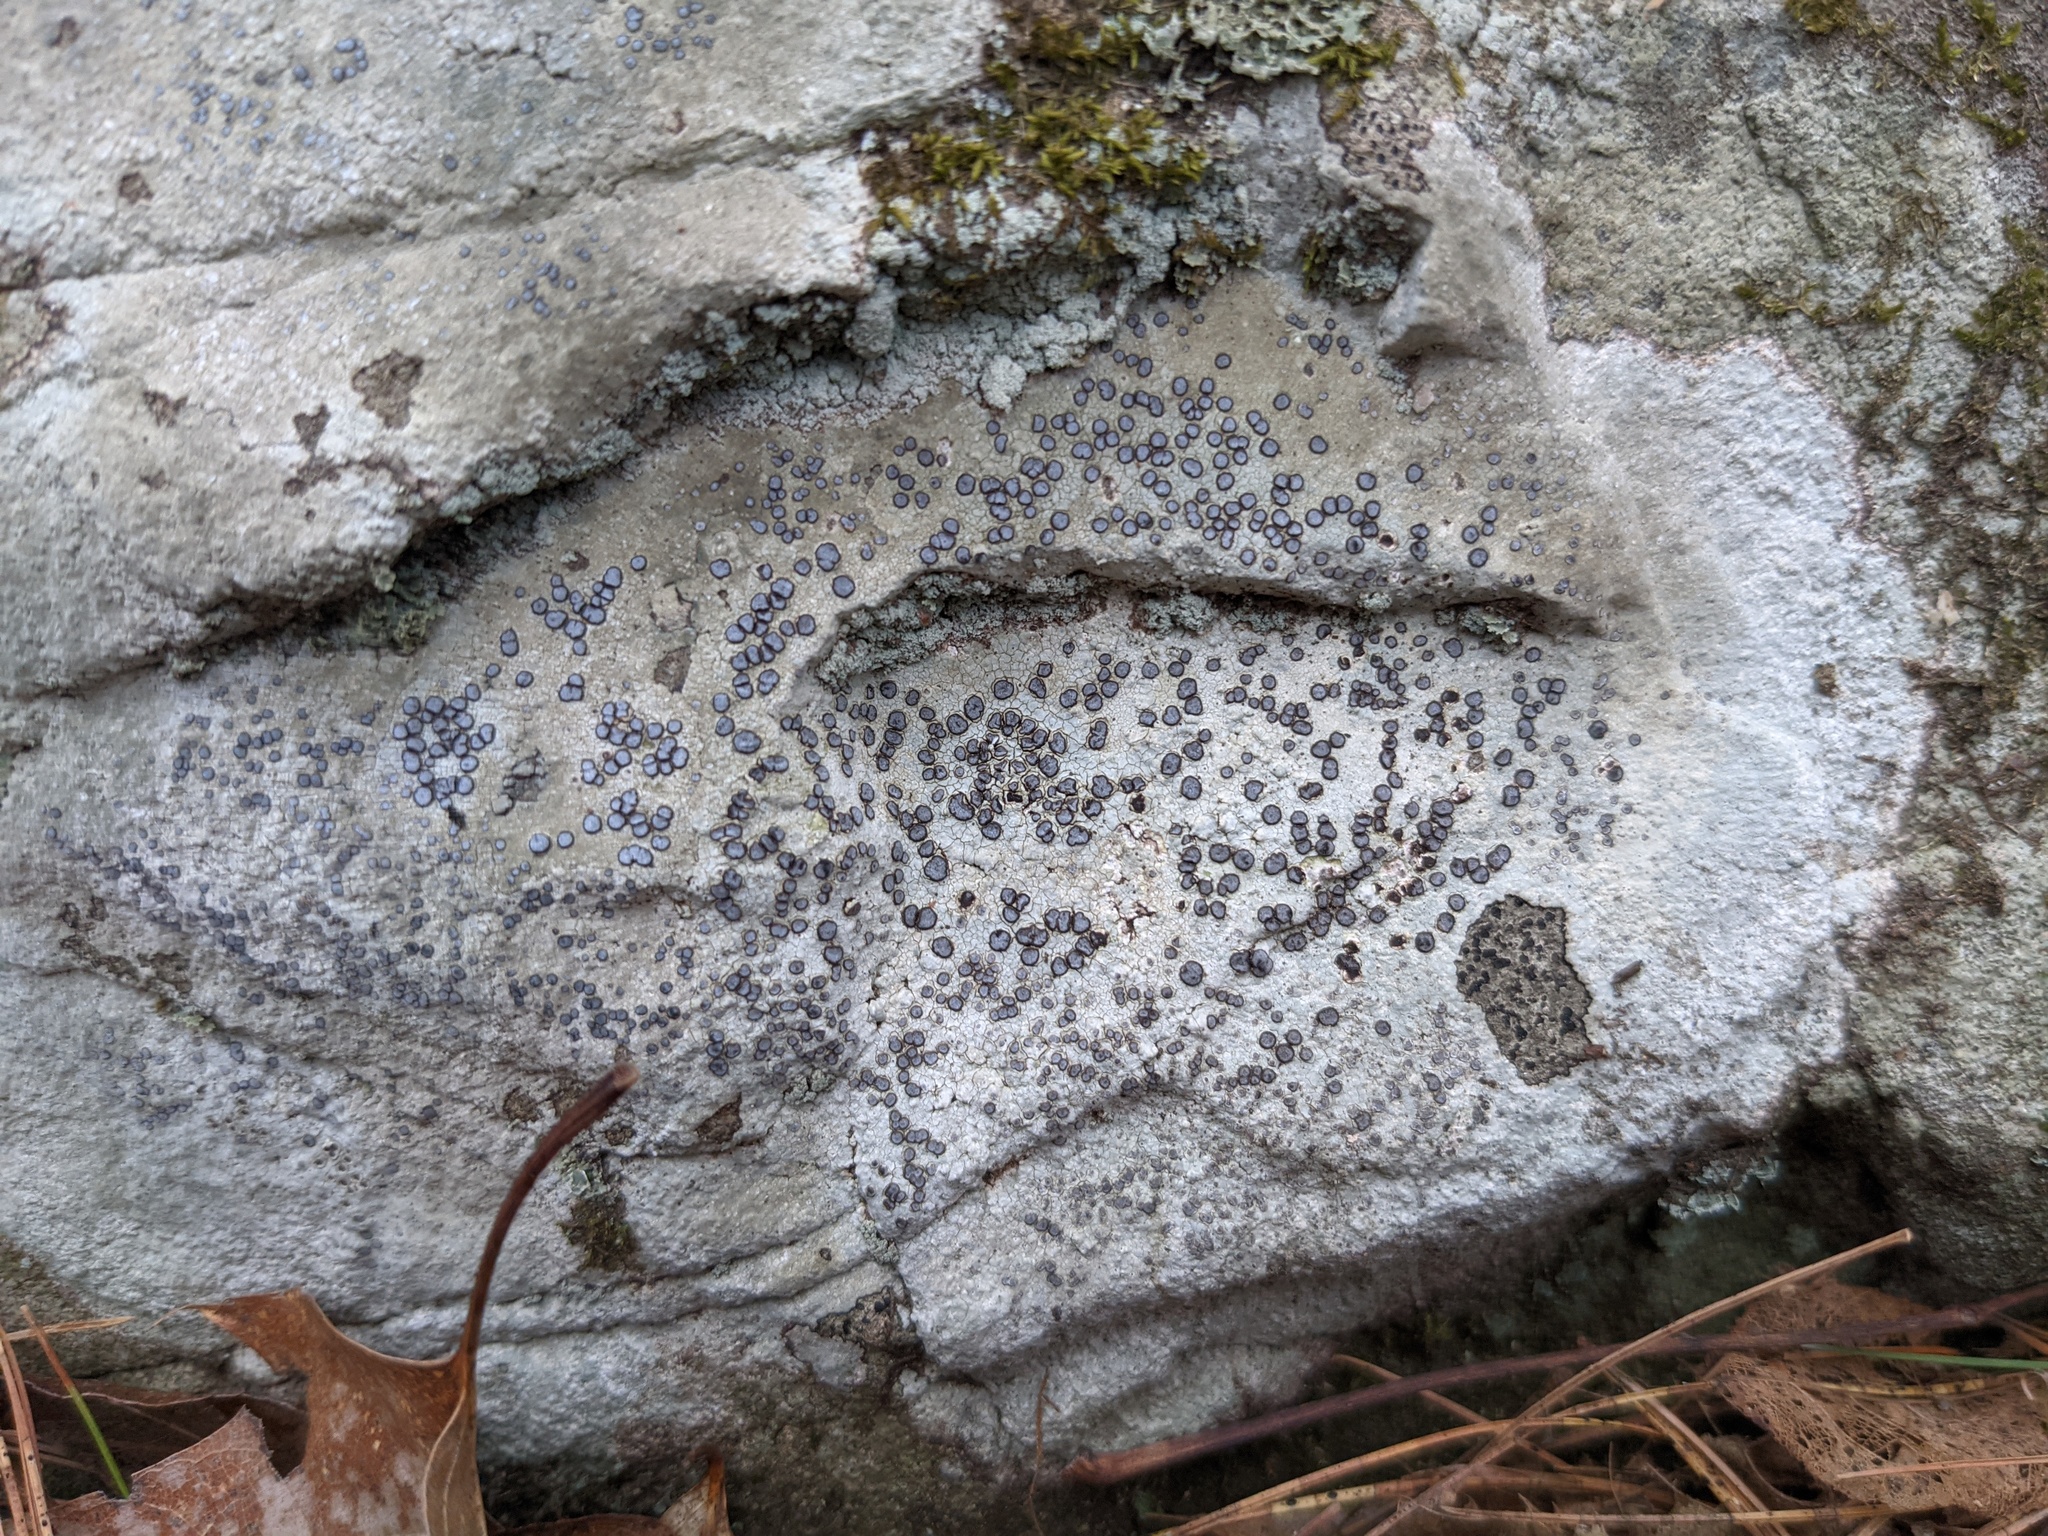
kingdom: Fungi
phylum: Ascomycota
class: Lecanoromycetes
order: Lecideales
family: Lecideaceae
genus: Porpidia
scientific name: Porpidia albocaerulescens
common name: Smokey-eyed boulder lichen
